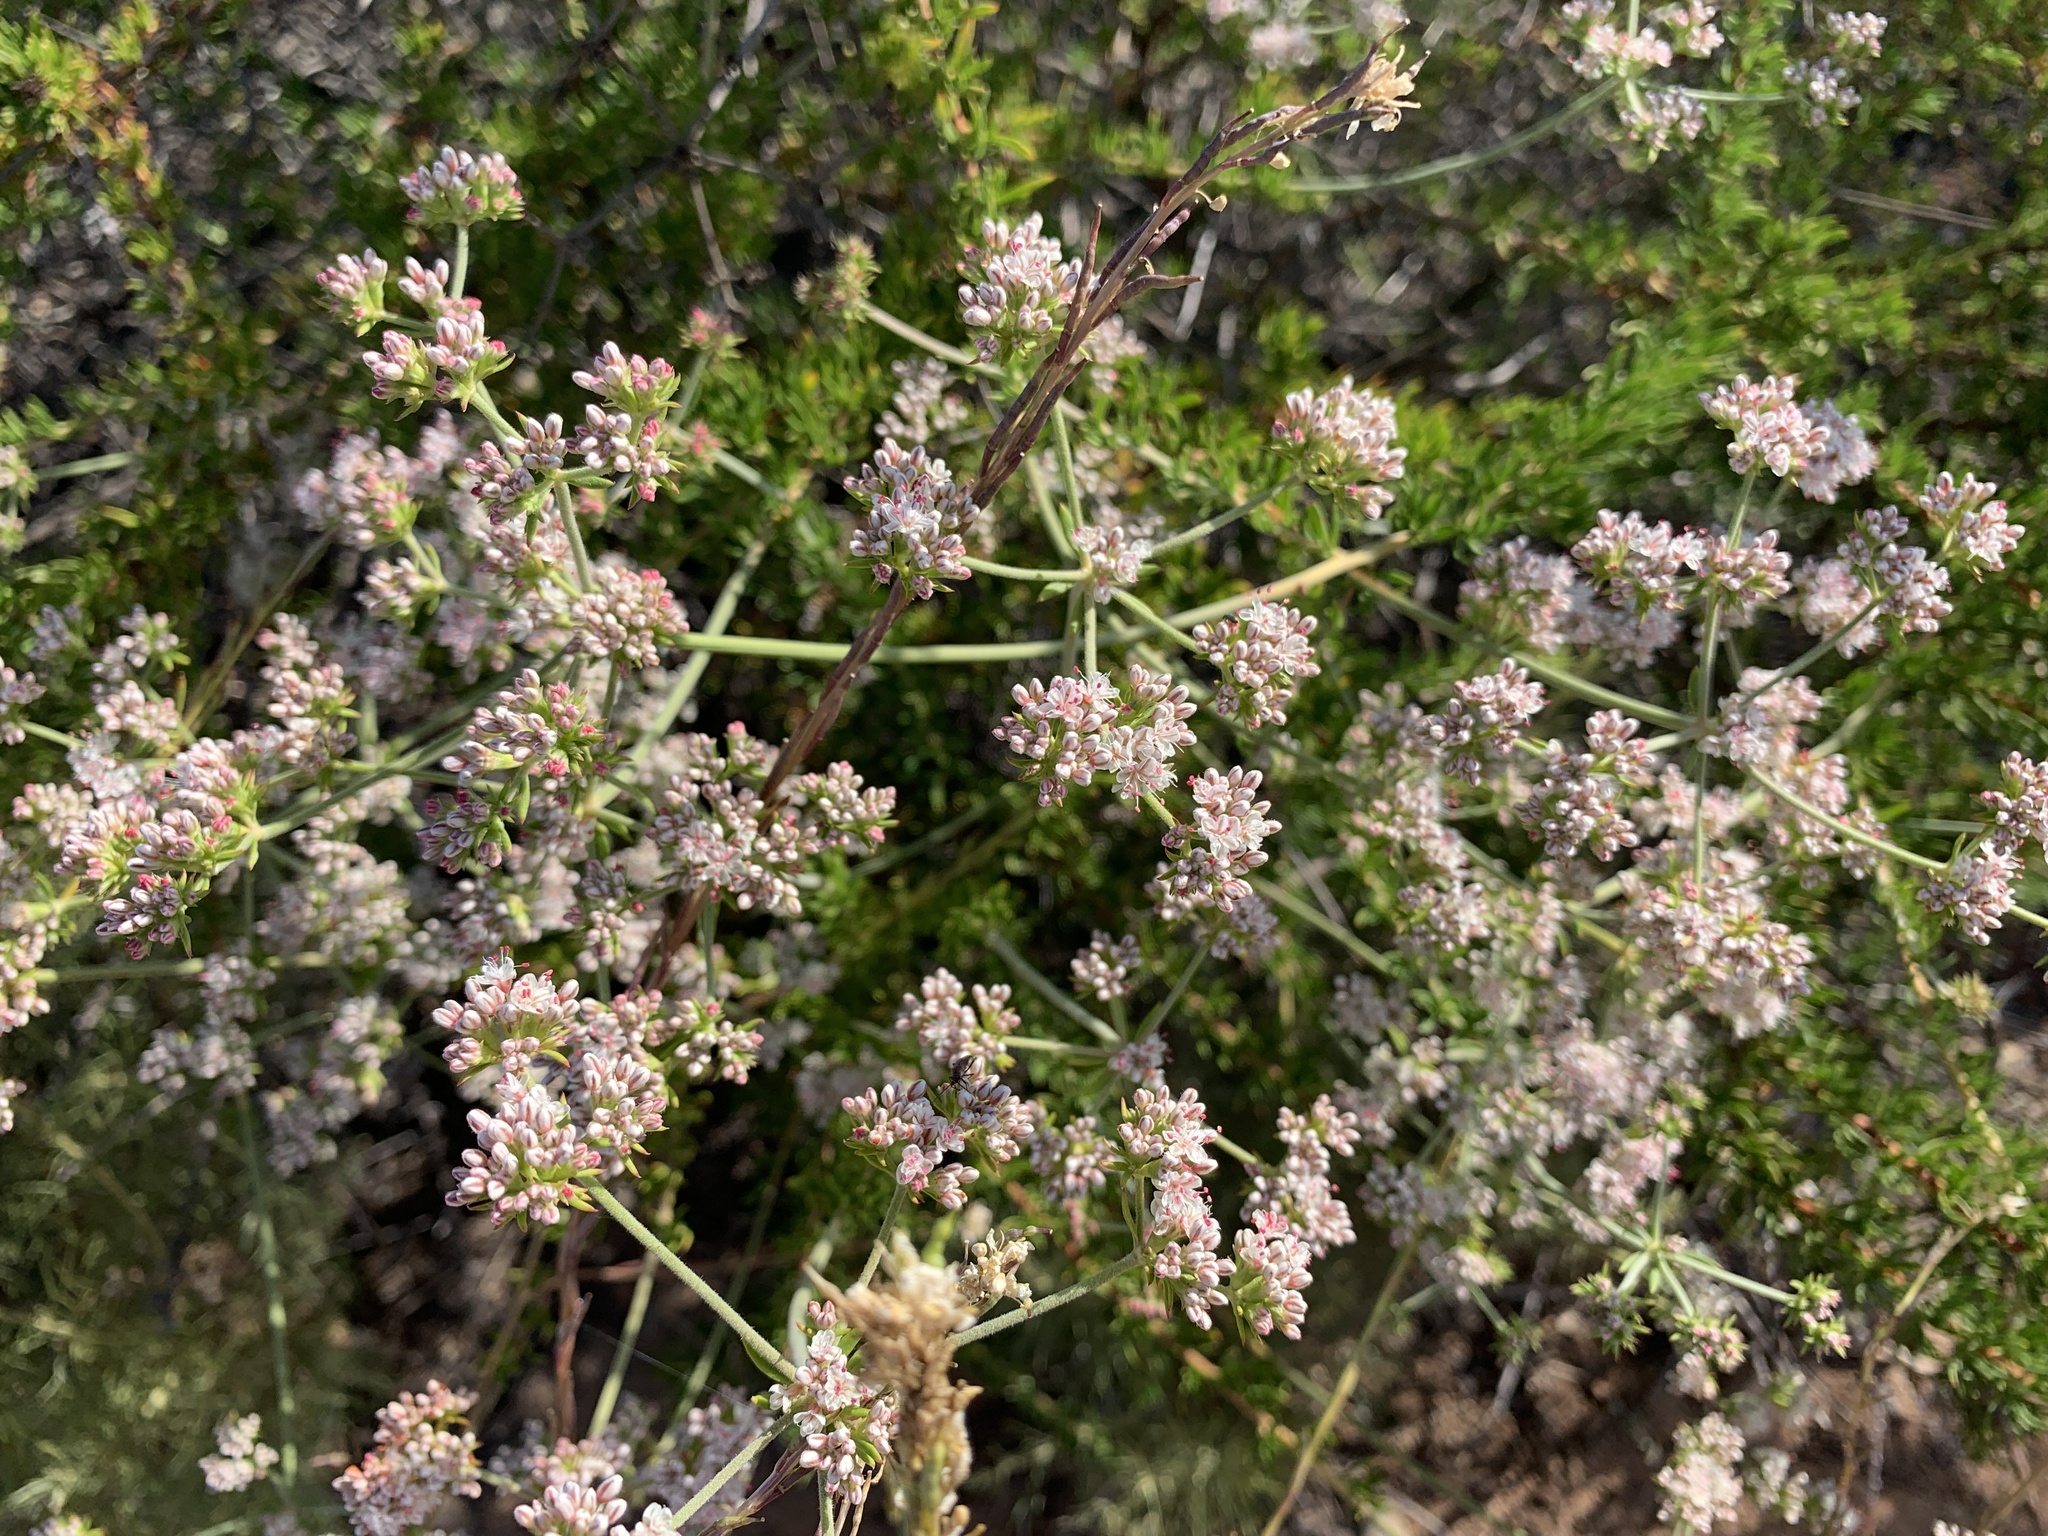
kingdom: Plantae
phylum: Tracheophyta
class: Magnoliopsida
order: Caryophyllales
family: Polygonaceae
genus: Eriogonum
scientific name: Eriogonum fasciculatum
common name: California wild buckwheat
